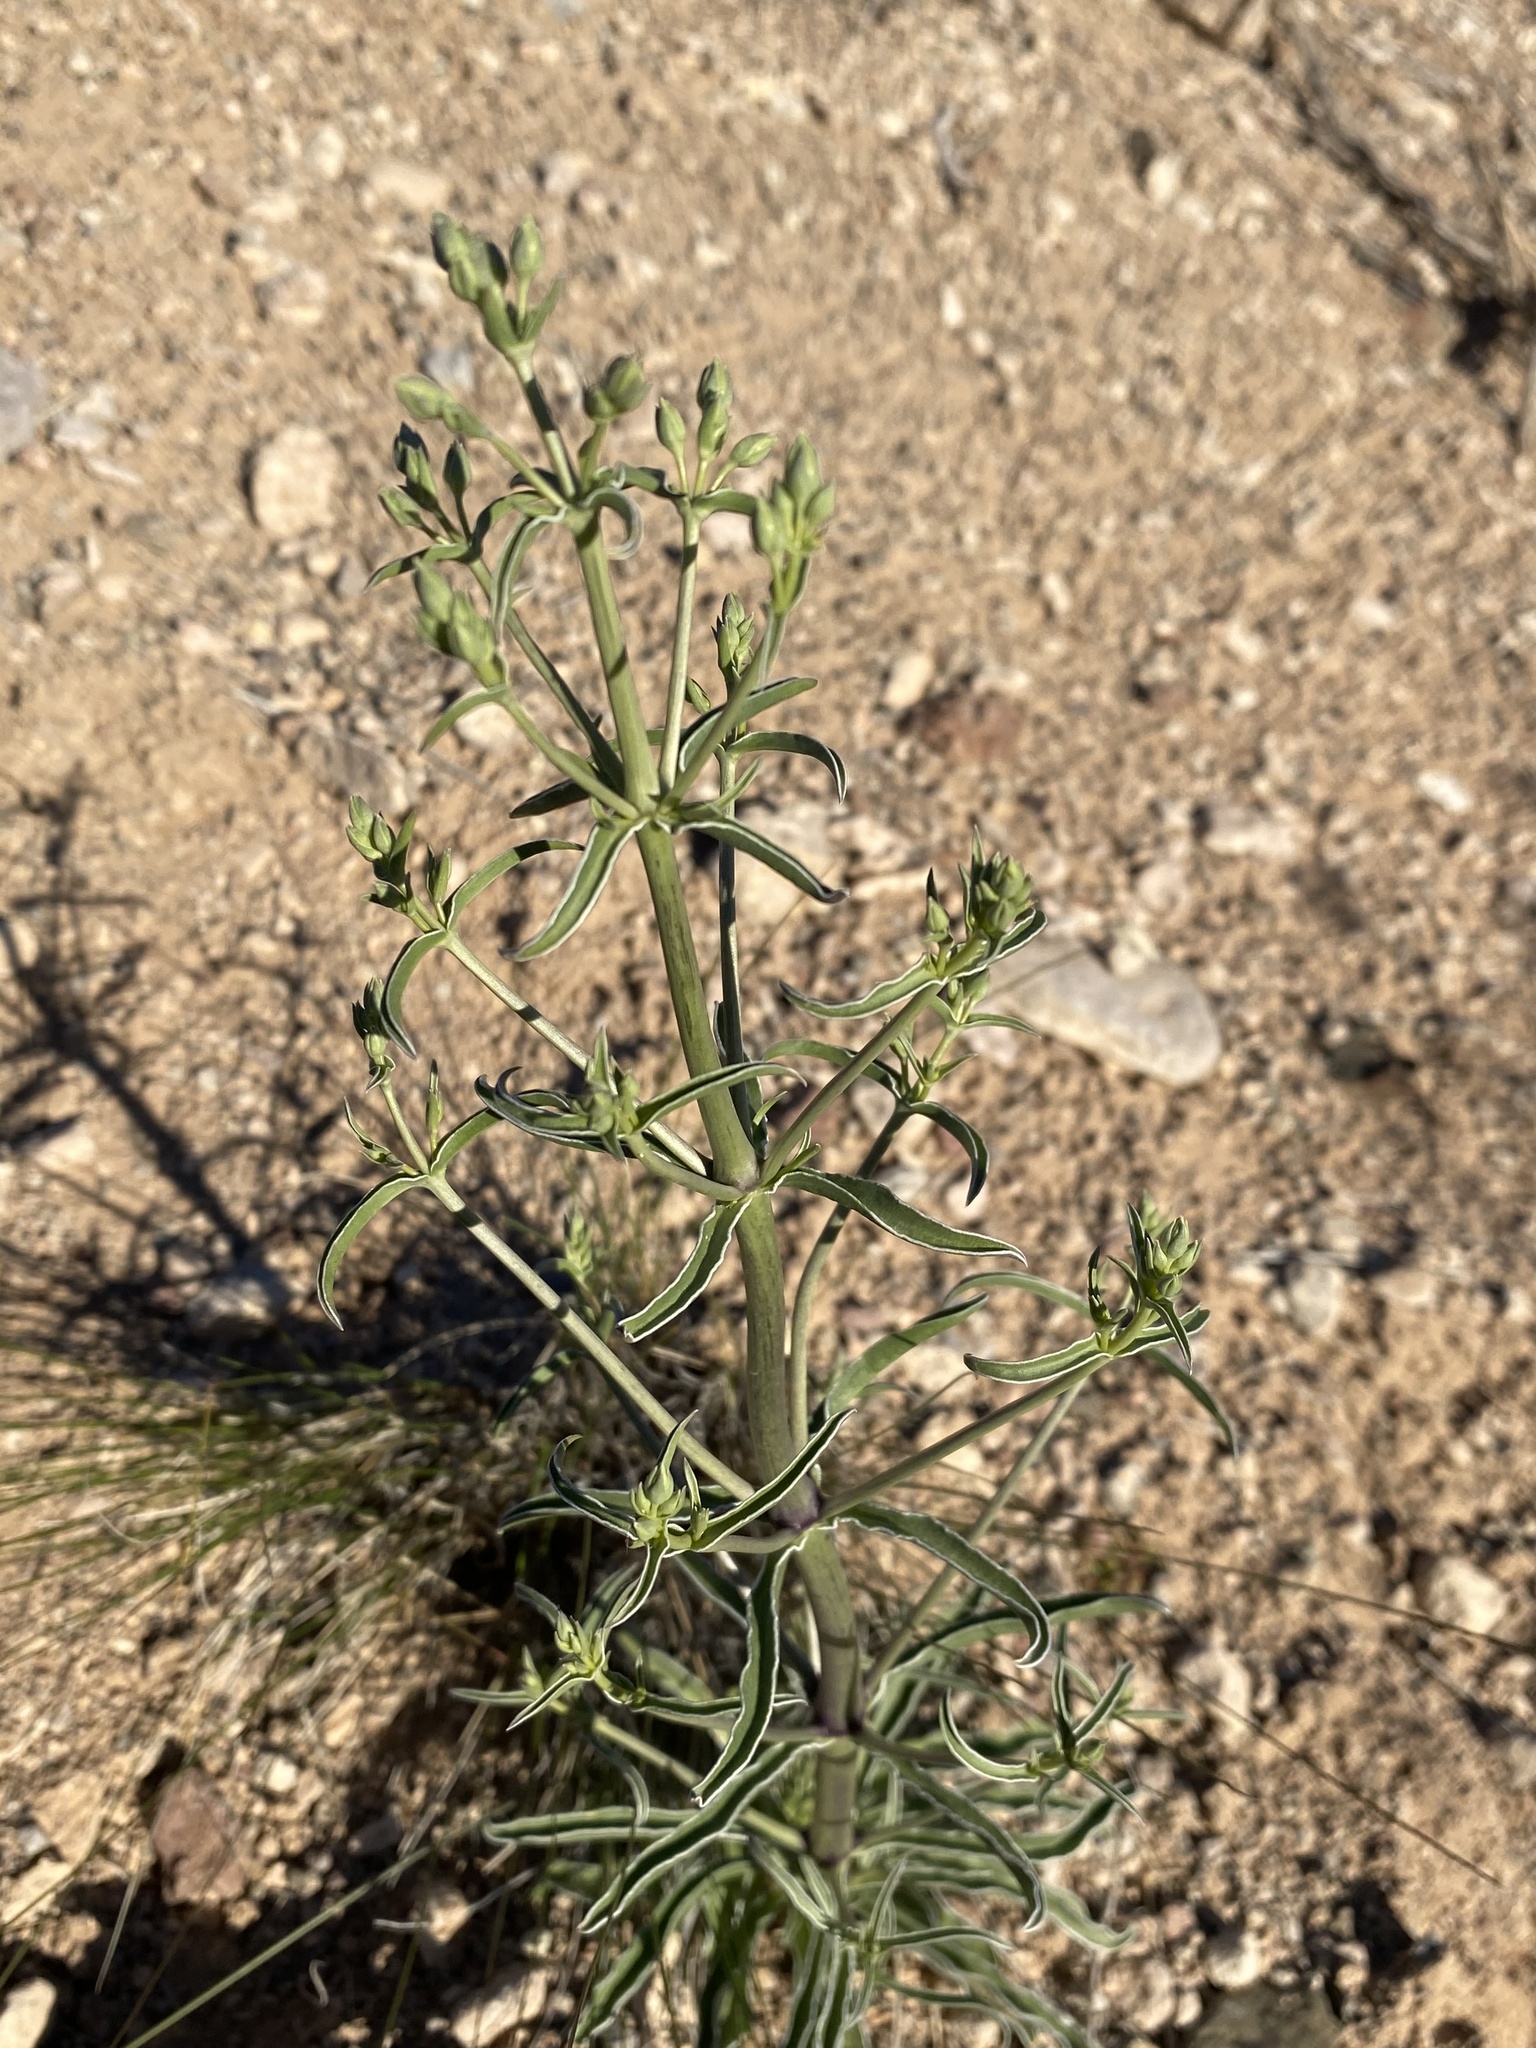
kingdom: Plantae
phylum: Tracheophyta
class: Magnoliopsida
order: Gentianales
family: Gentianaceae
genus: Frasera
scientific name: Frasera albomarginata
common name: Desert frasera
